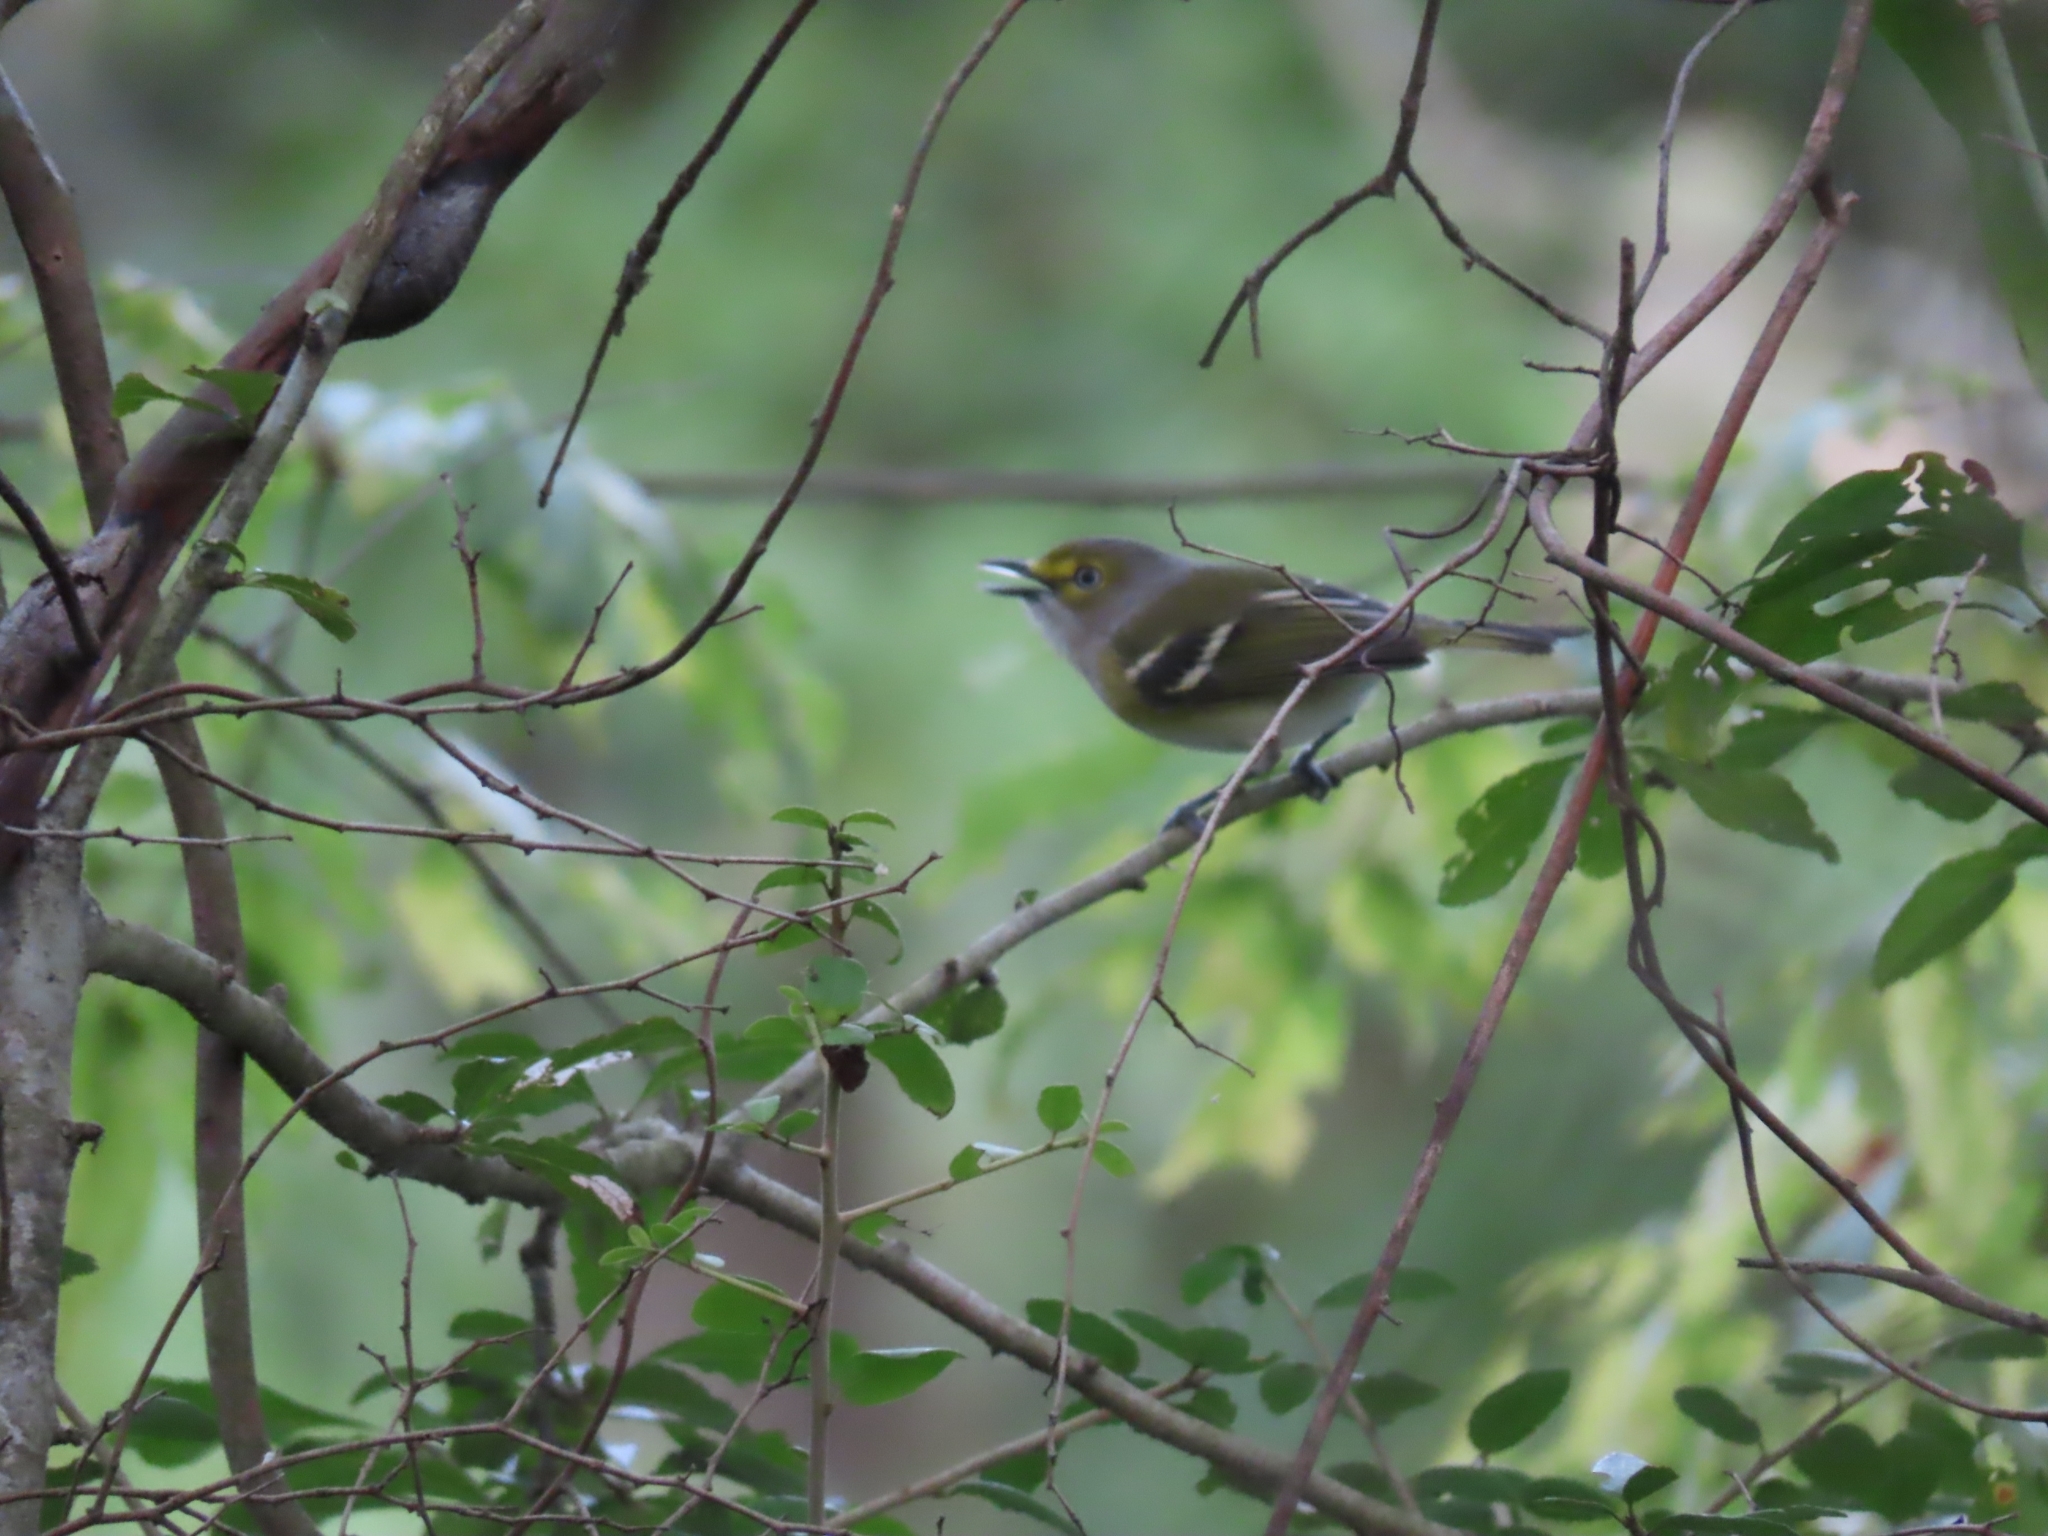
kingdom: Animalia
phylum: Chordata
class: Aves
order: Passeriformes
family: Vireonidae
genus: Vireo
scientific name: Vireo griseus
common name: White-eyed vireo
